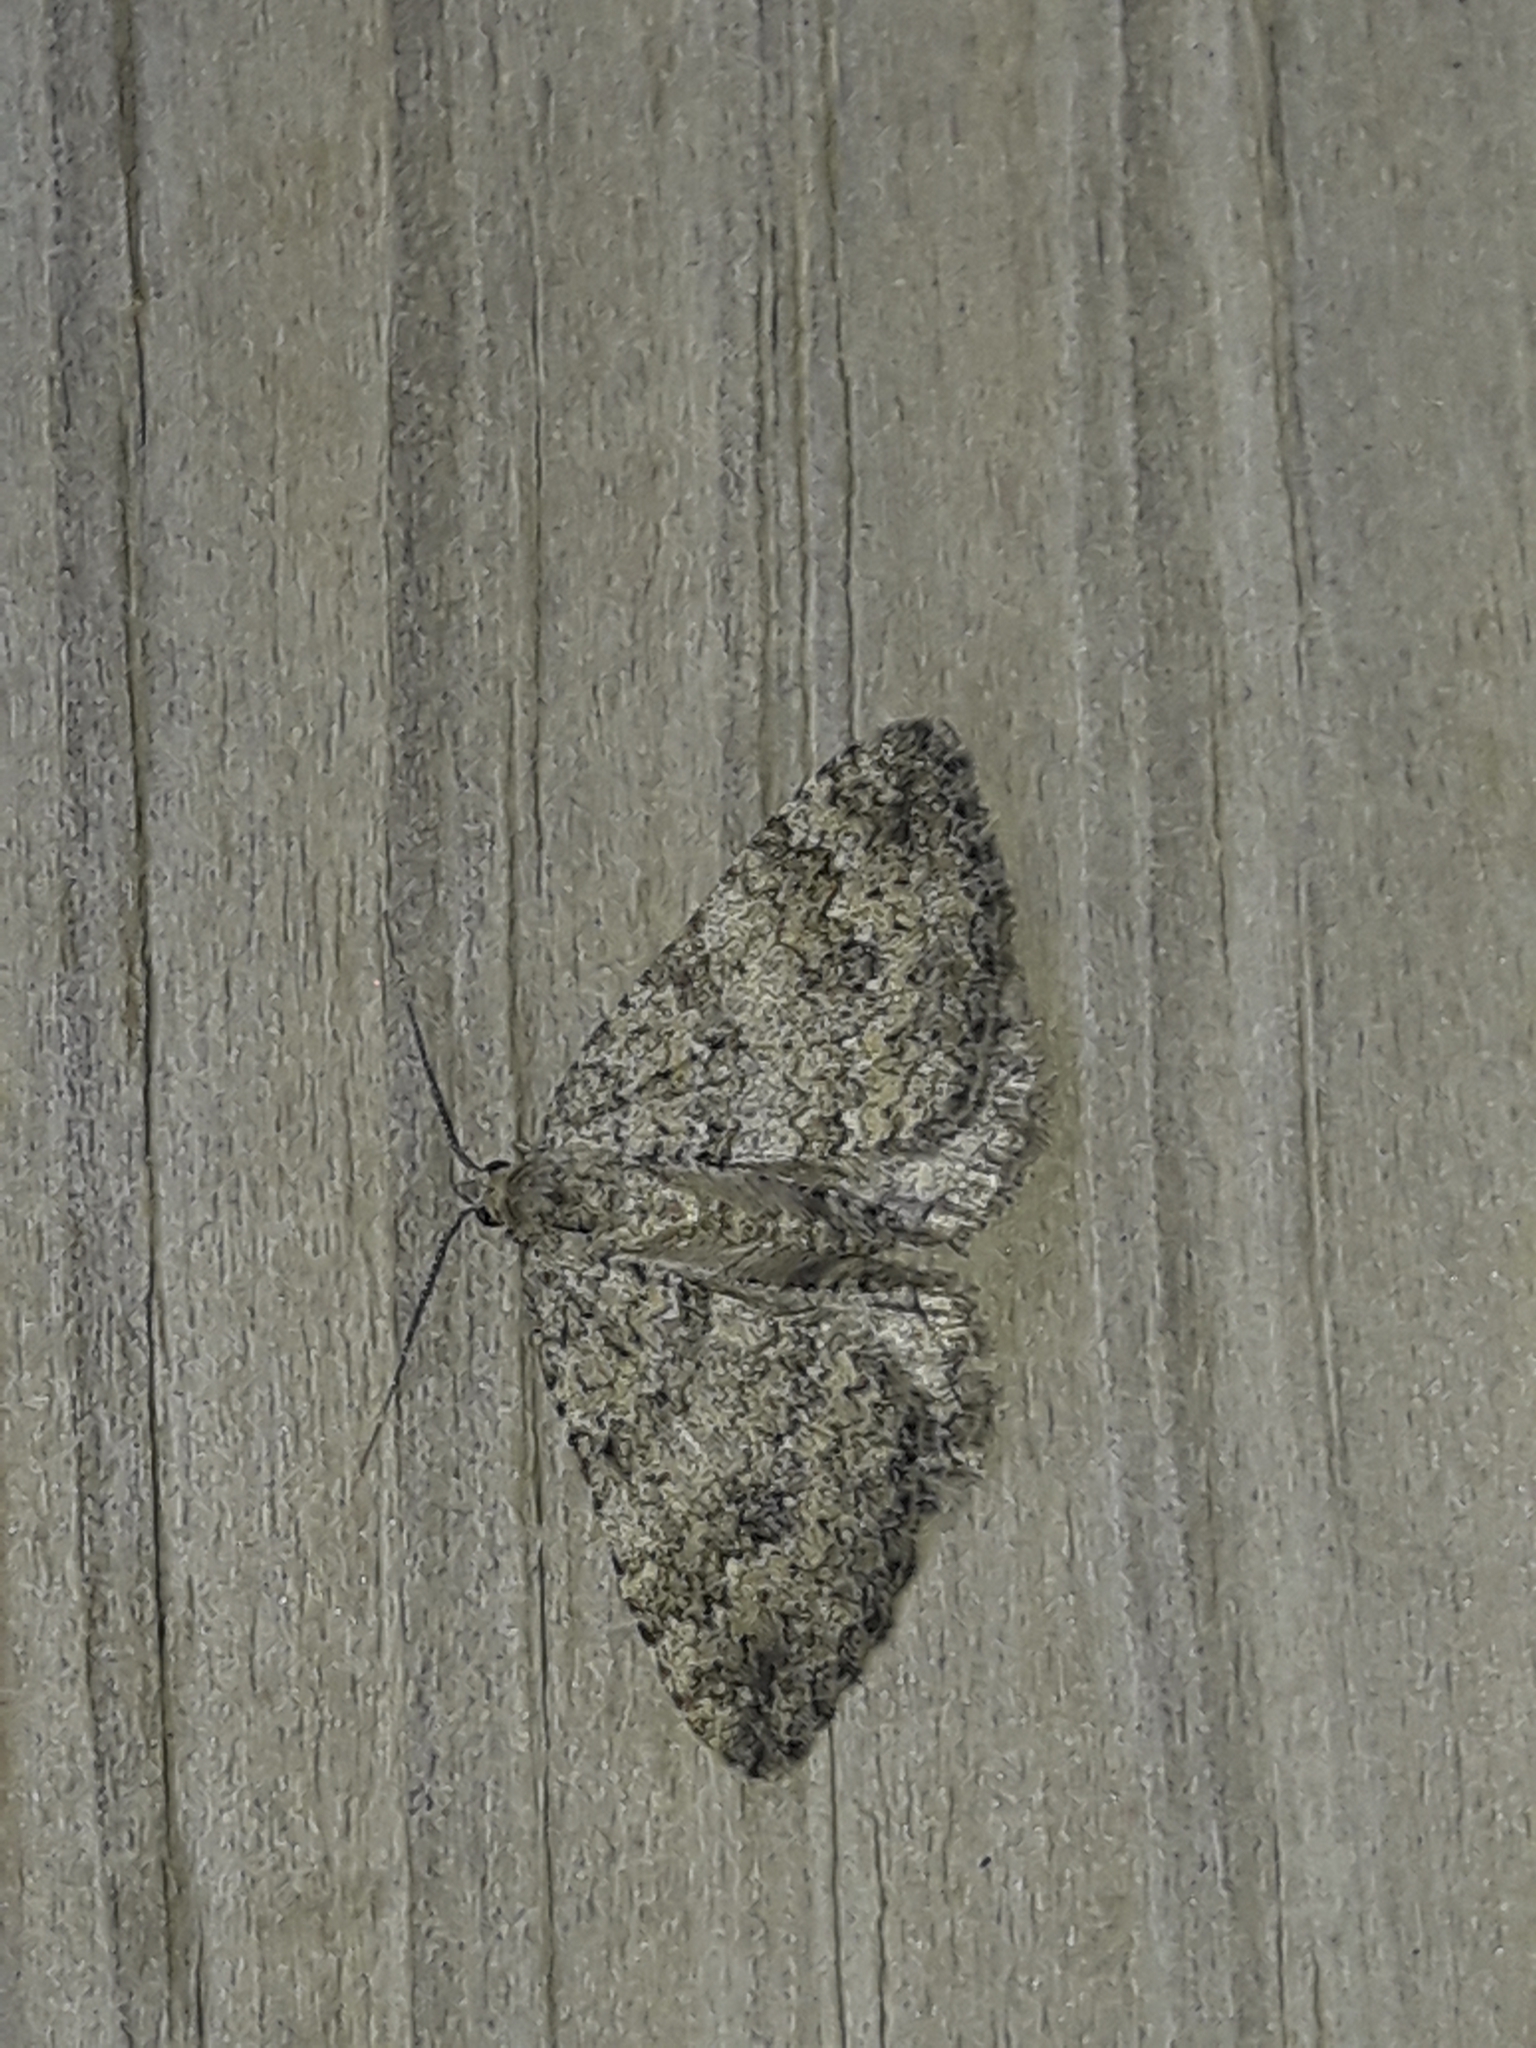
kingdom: Animalia
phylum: Arthropoda
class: Insecta
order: Lepidoptera
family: Geometridae
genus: Helastia
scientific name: Helastia corcularia
